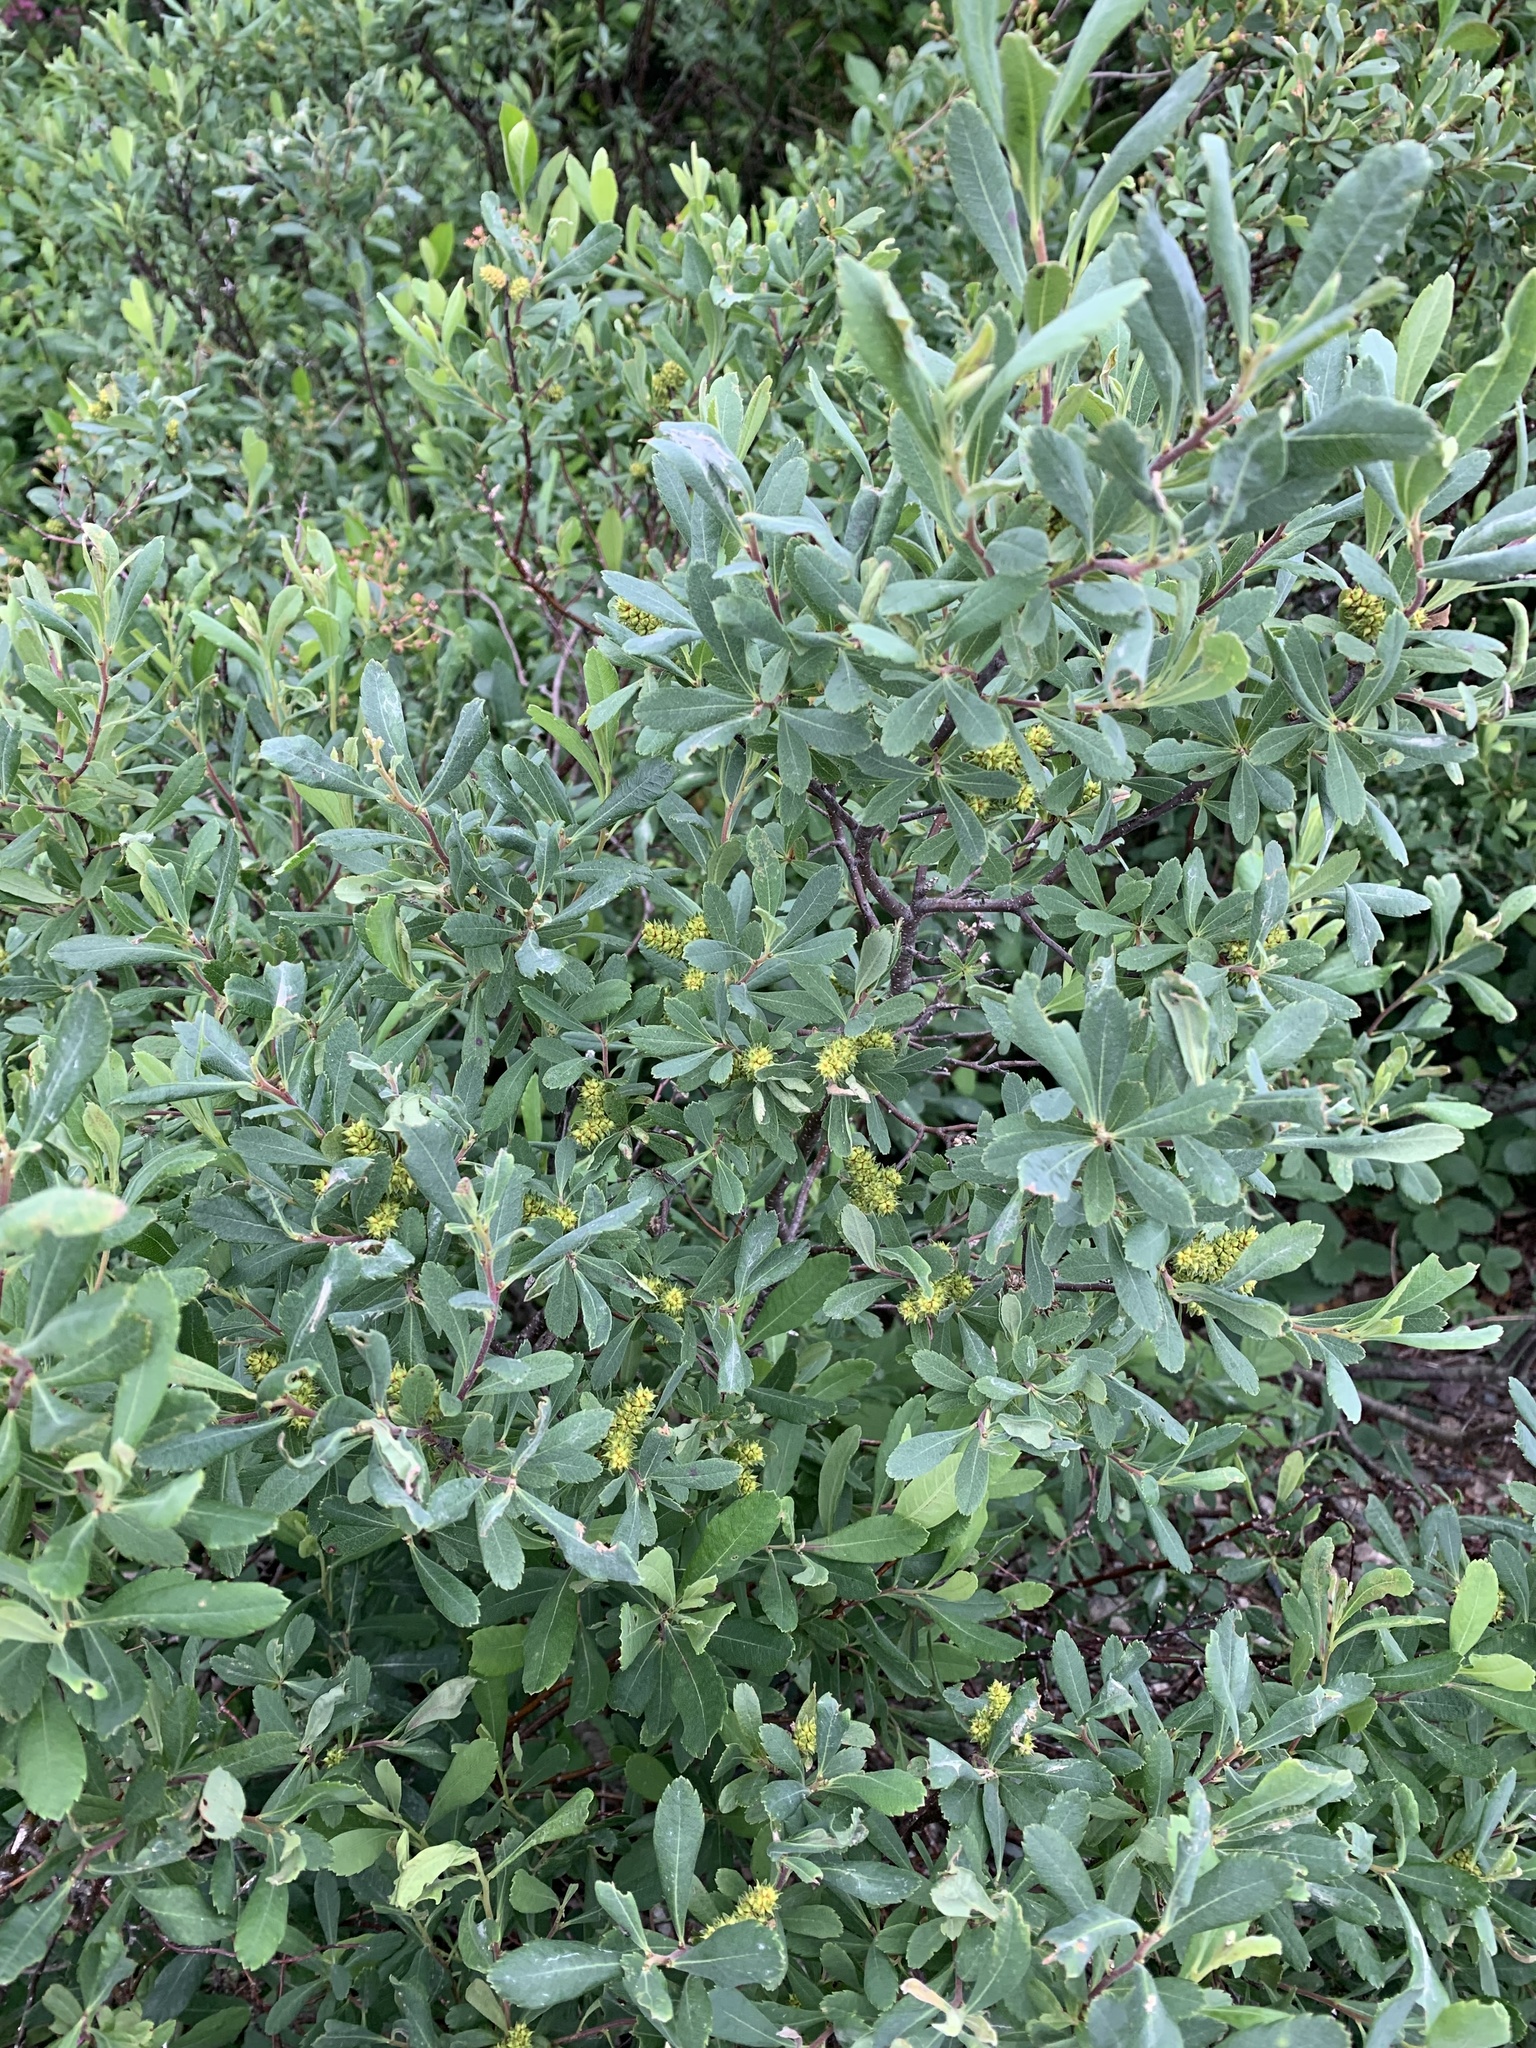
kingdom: Plantae
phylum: Tracheophyta
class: Magnoliopsida
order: Fagales
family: Myricaceae
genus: Myrica
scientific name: Myrica gale
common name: Sweet gale
